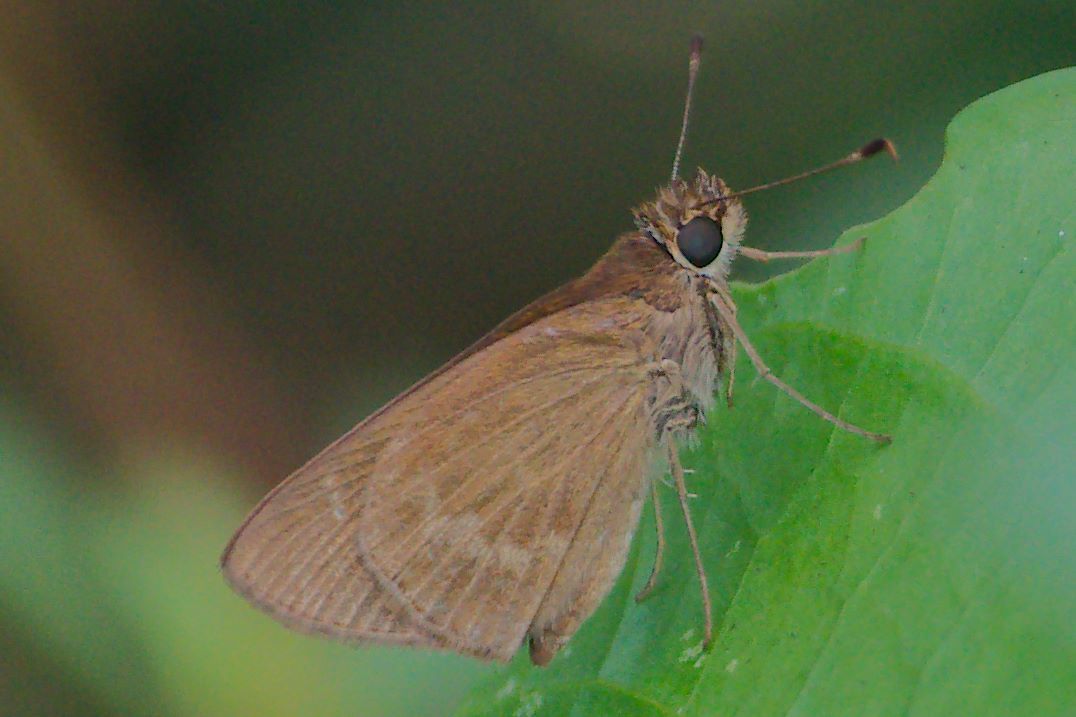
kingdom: Animalia
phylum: Arthropoda
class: Insecta
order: Lepidoptera
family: Hesperiidae
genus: Cymaenes
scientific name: Cymaenes tripunctus
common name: Dingy dotted skipper
